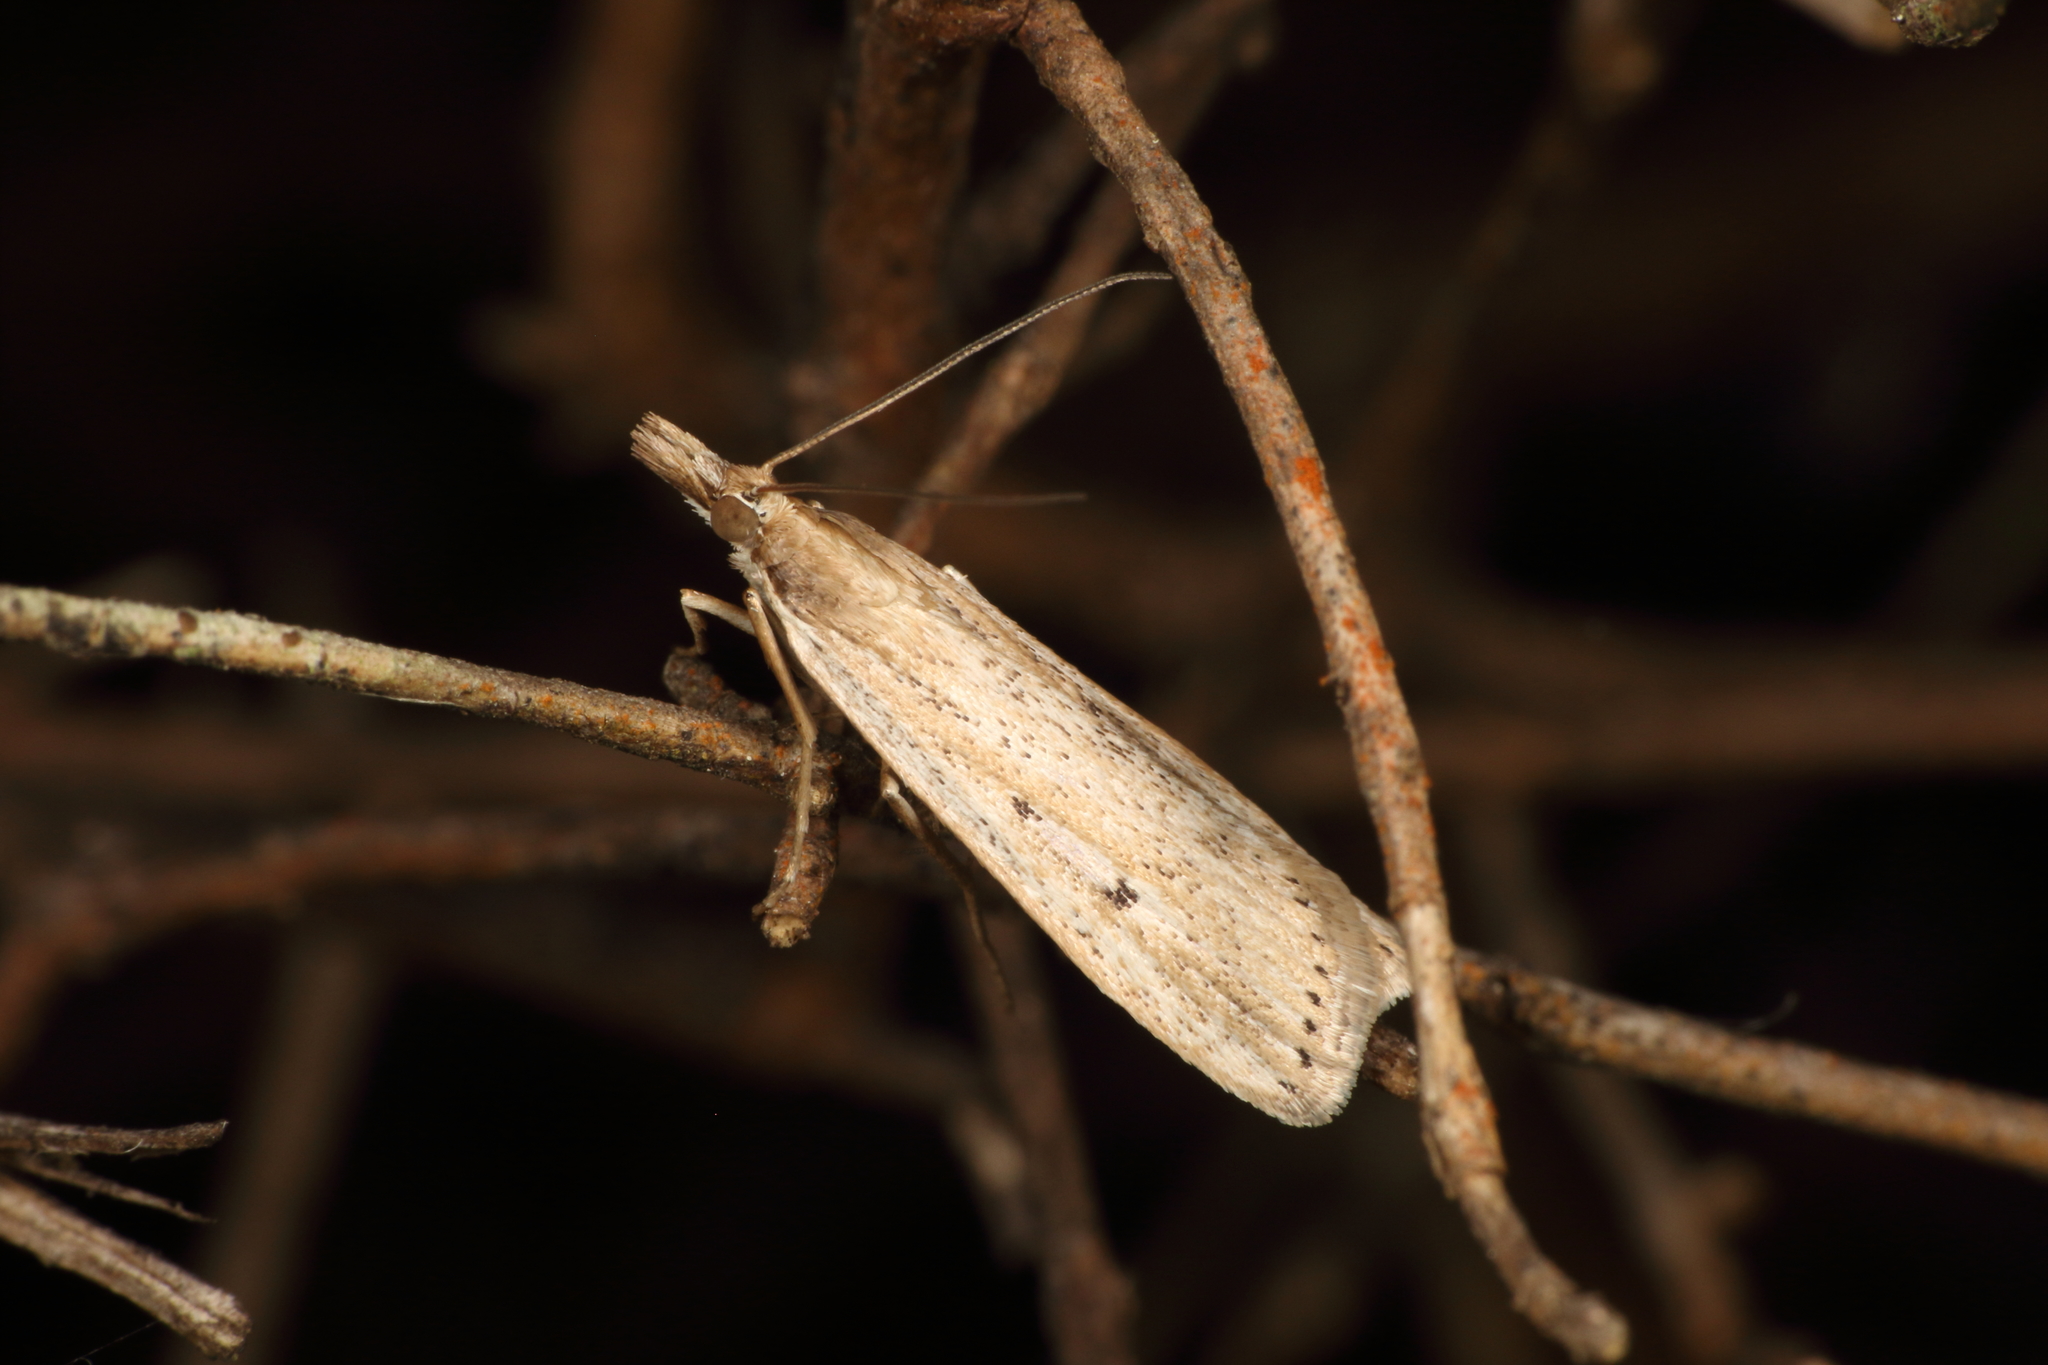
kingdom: Animalia
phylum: Arthropoda
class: Insecta
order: Lepidoptera
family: Crambidae
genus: Eudonia
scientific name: Eudonia sabulosella
